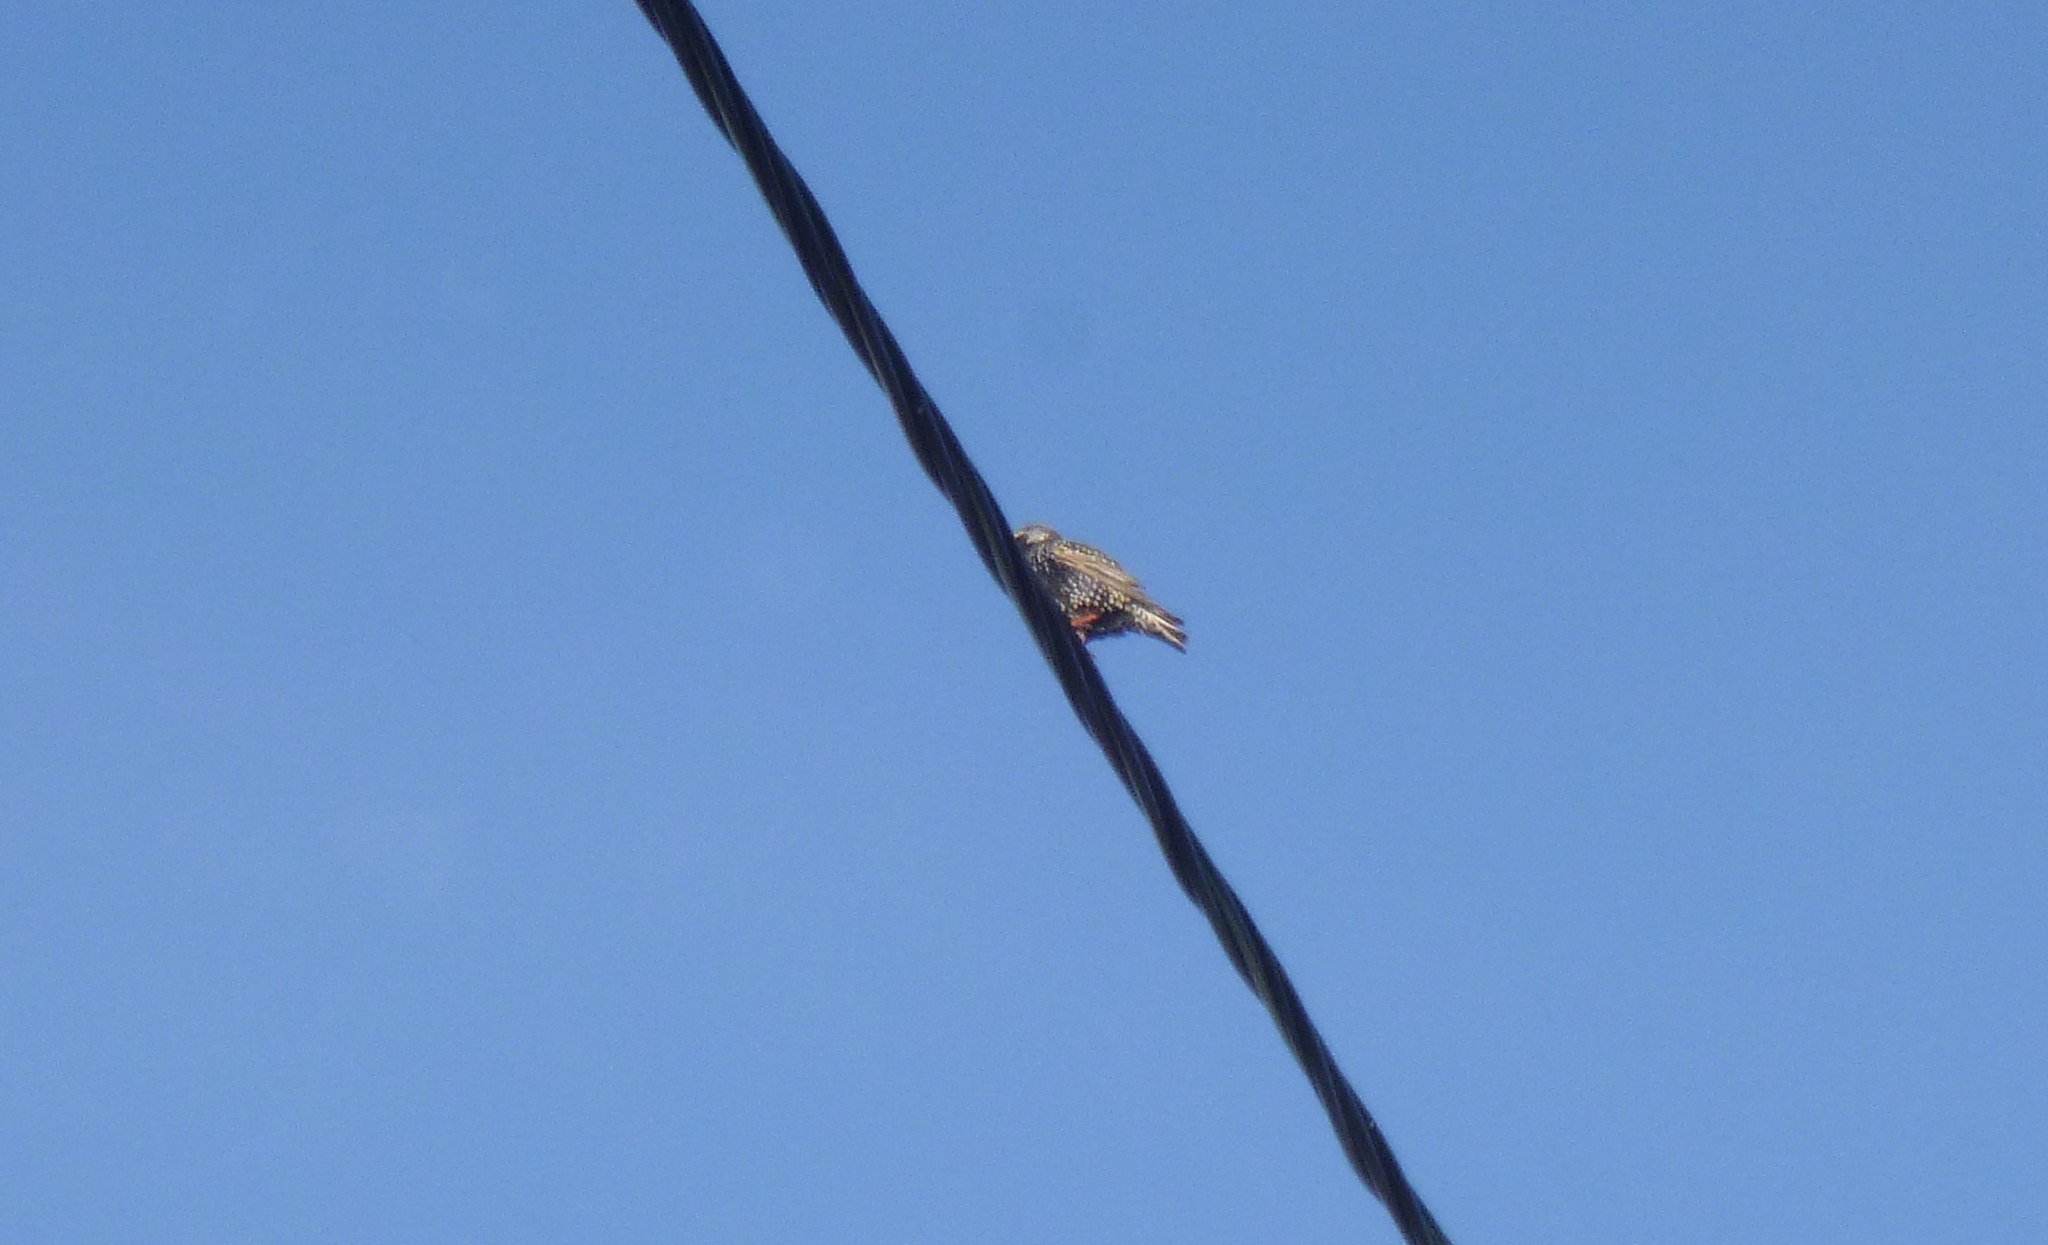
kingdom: Animalia
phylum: Chordata
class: Aves
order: Passeriformes
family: Sturnidae
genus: Sturnus
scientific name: Sturnus vulgaris
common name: Common starling
